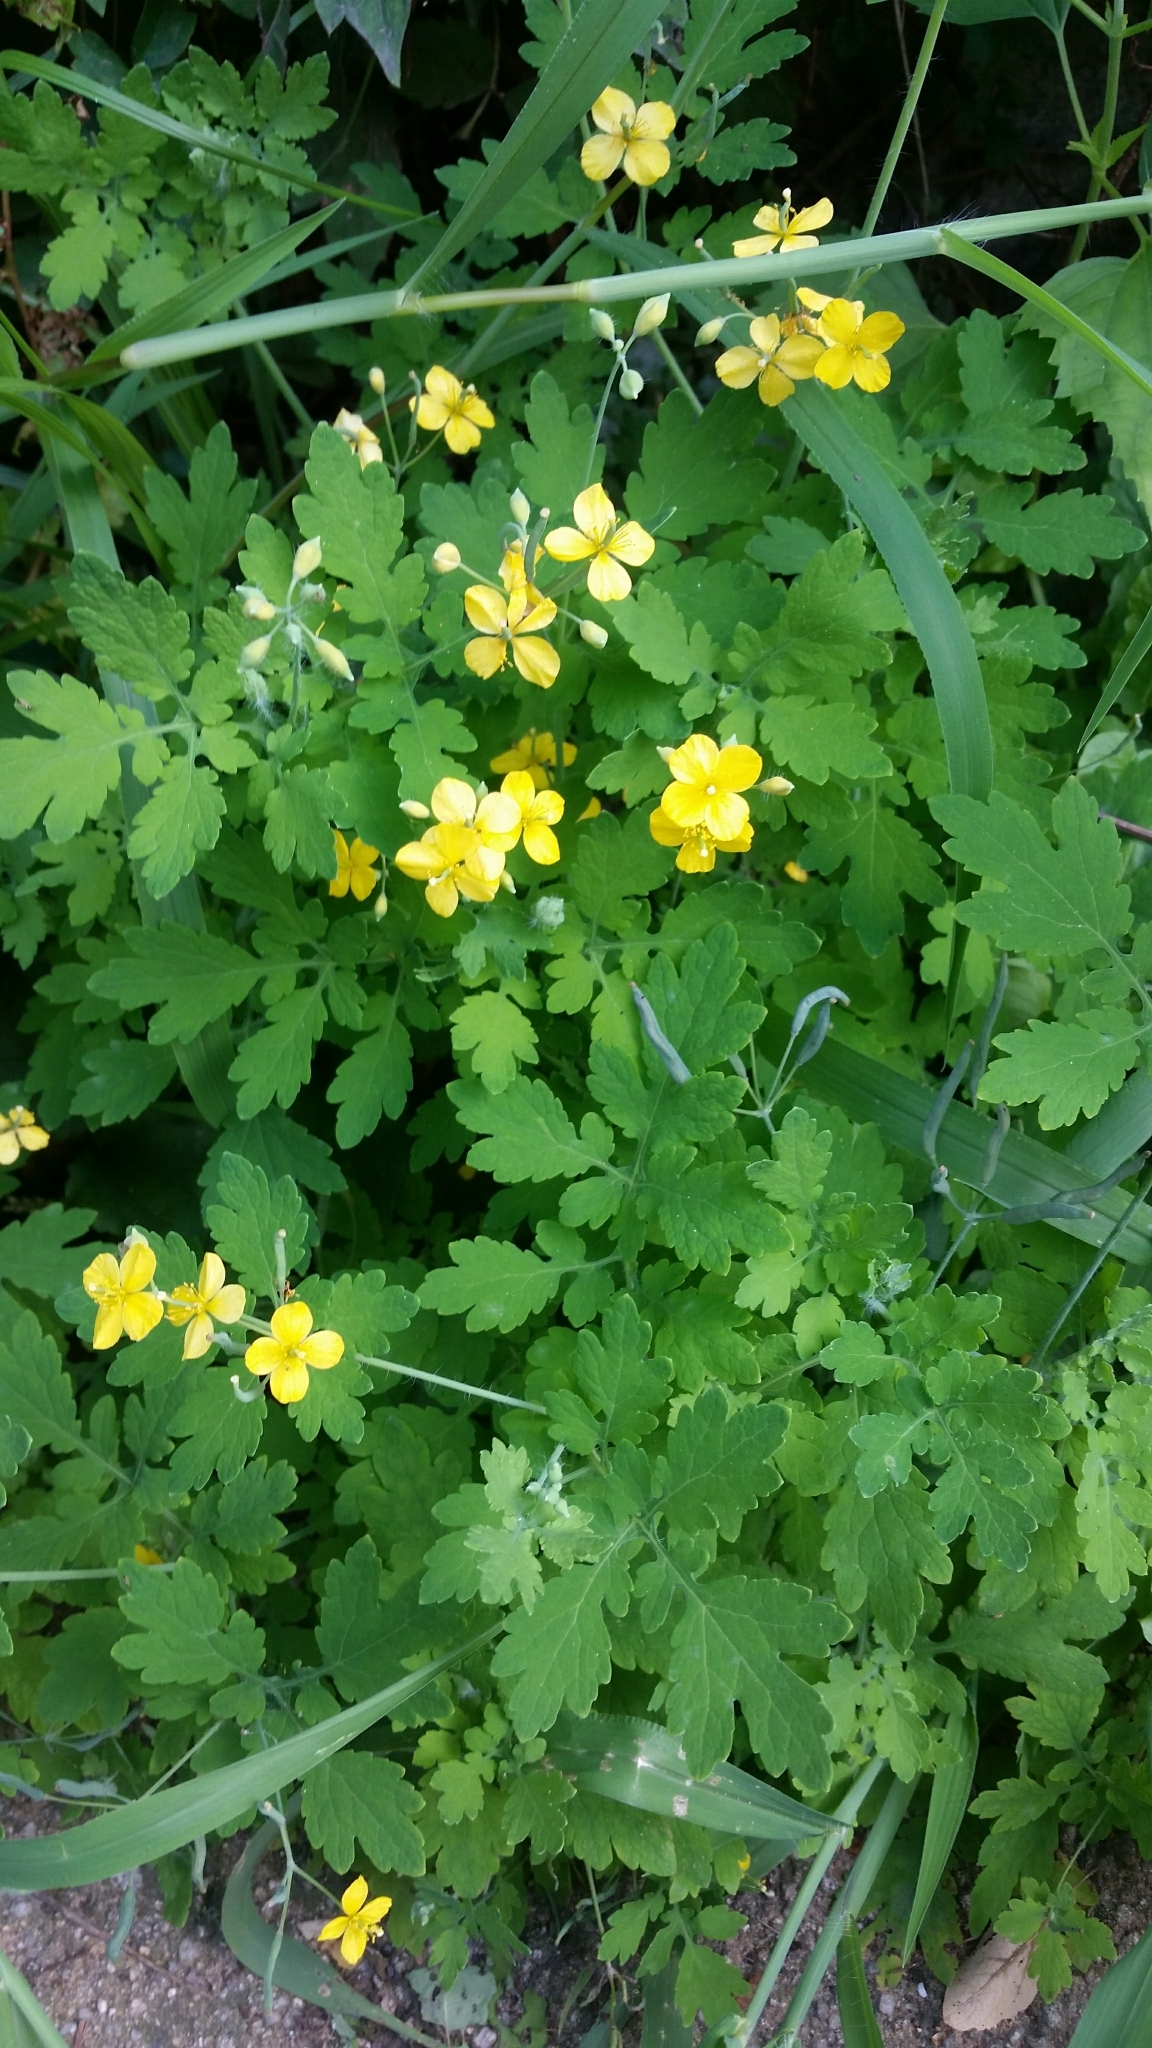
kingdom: Plantae
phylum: Tracheophyta
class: Magnoliopsida
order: Ranunculales
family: Papaveraceae
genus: Chelidonium
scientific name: Chelidonium majus
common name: Greater celandine
